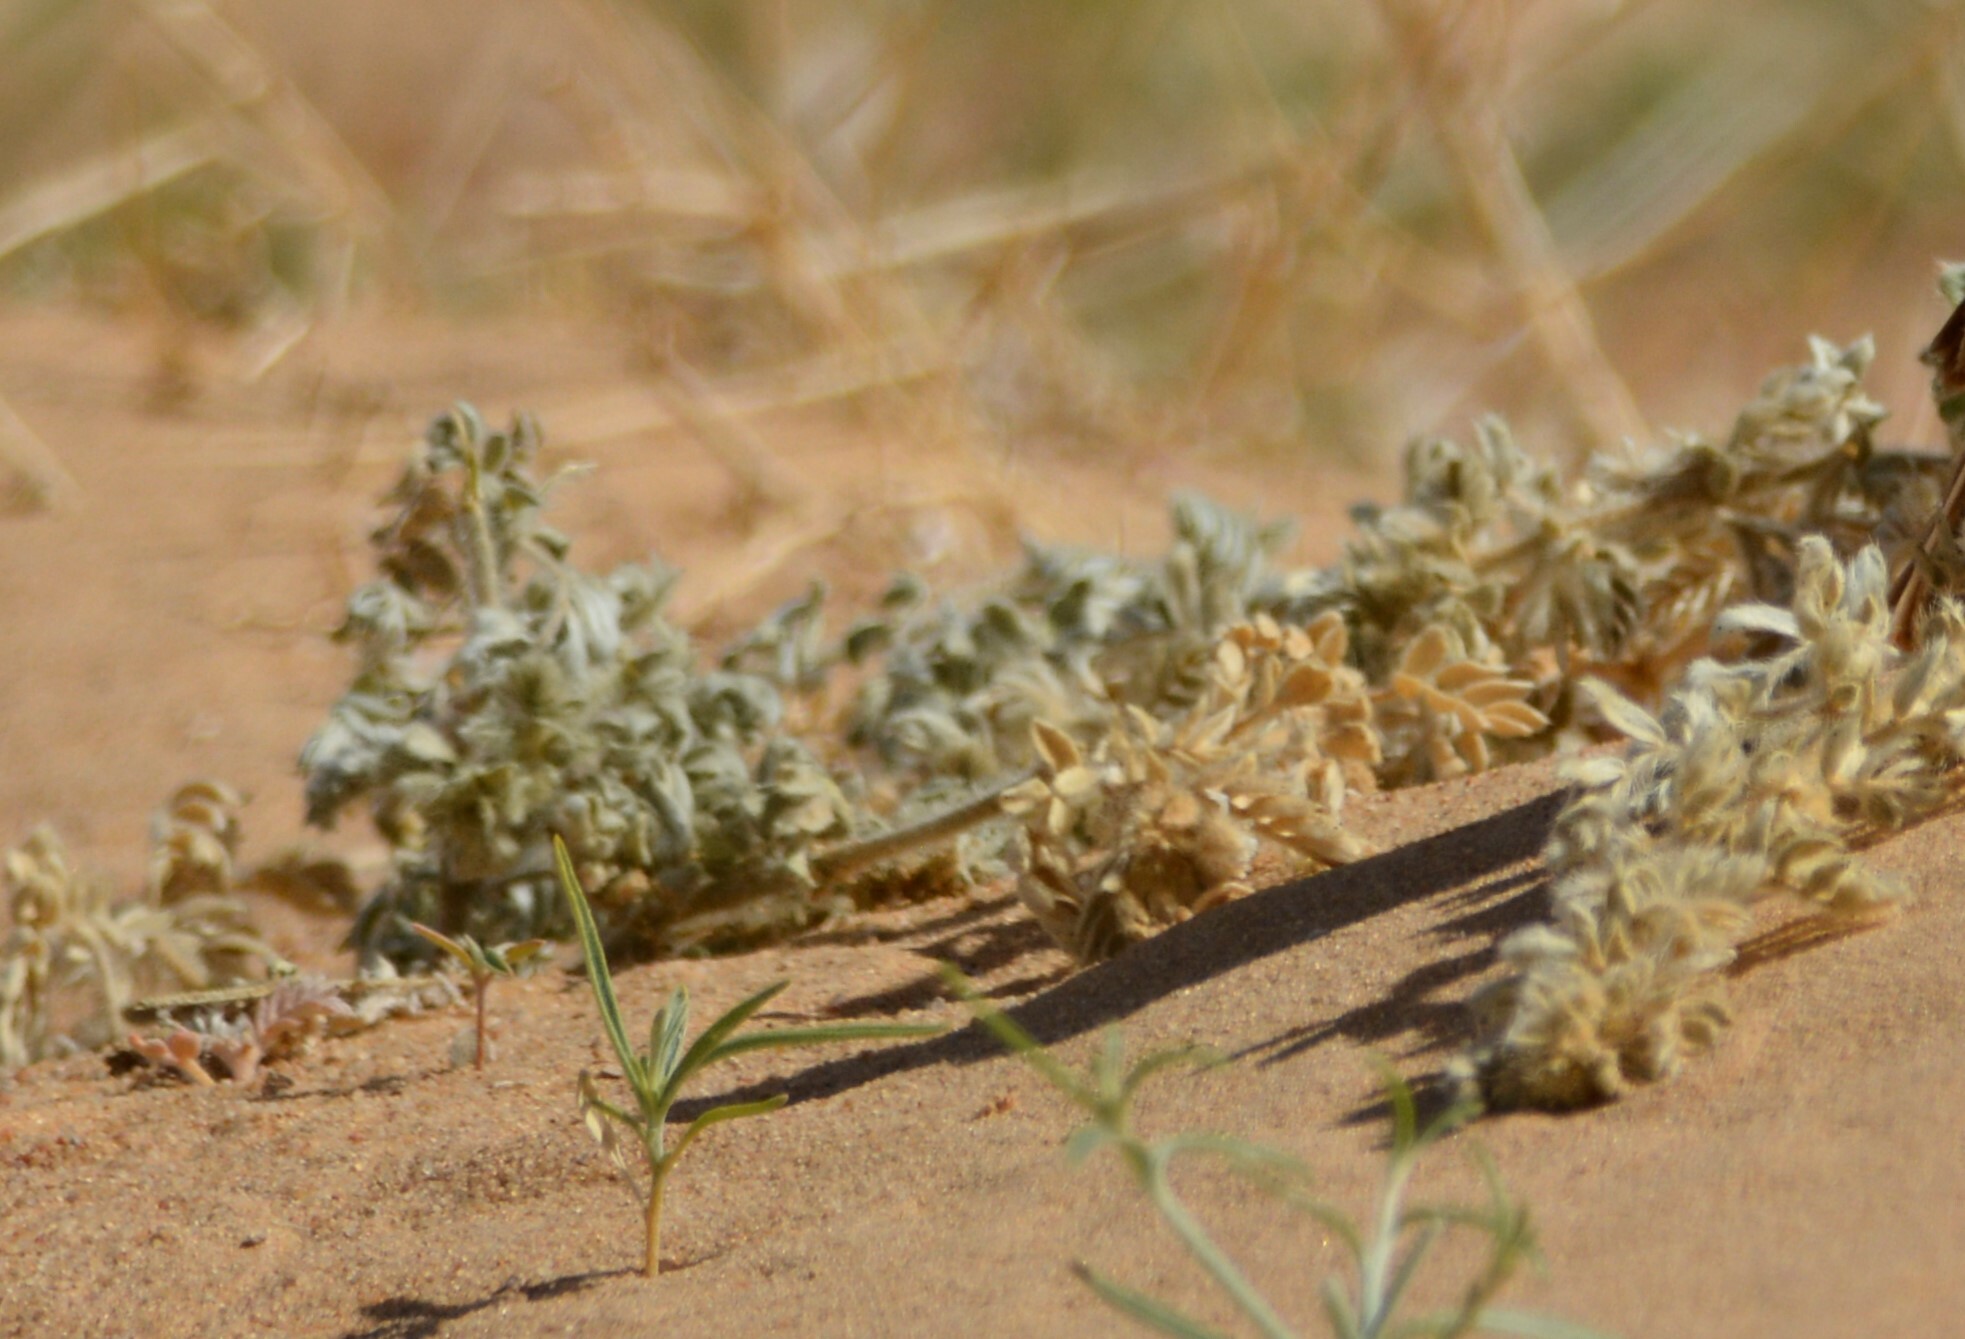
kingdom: Plantae
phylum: Tracheophyta
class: Magnoliopsida
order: Zygophyllales
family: Zygophyllaceae
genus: Tribulus
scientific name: Tribulus mollis
